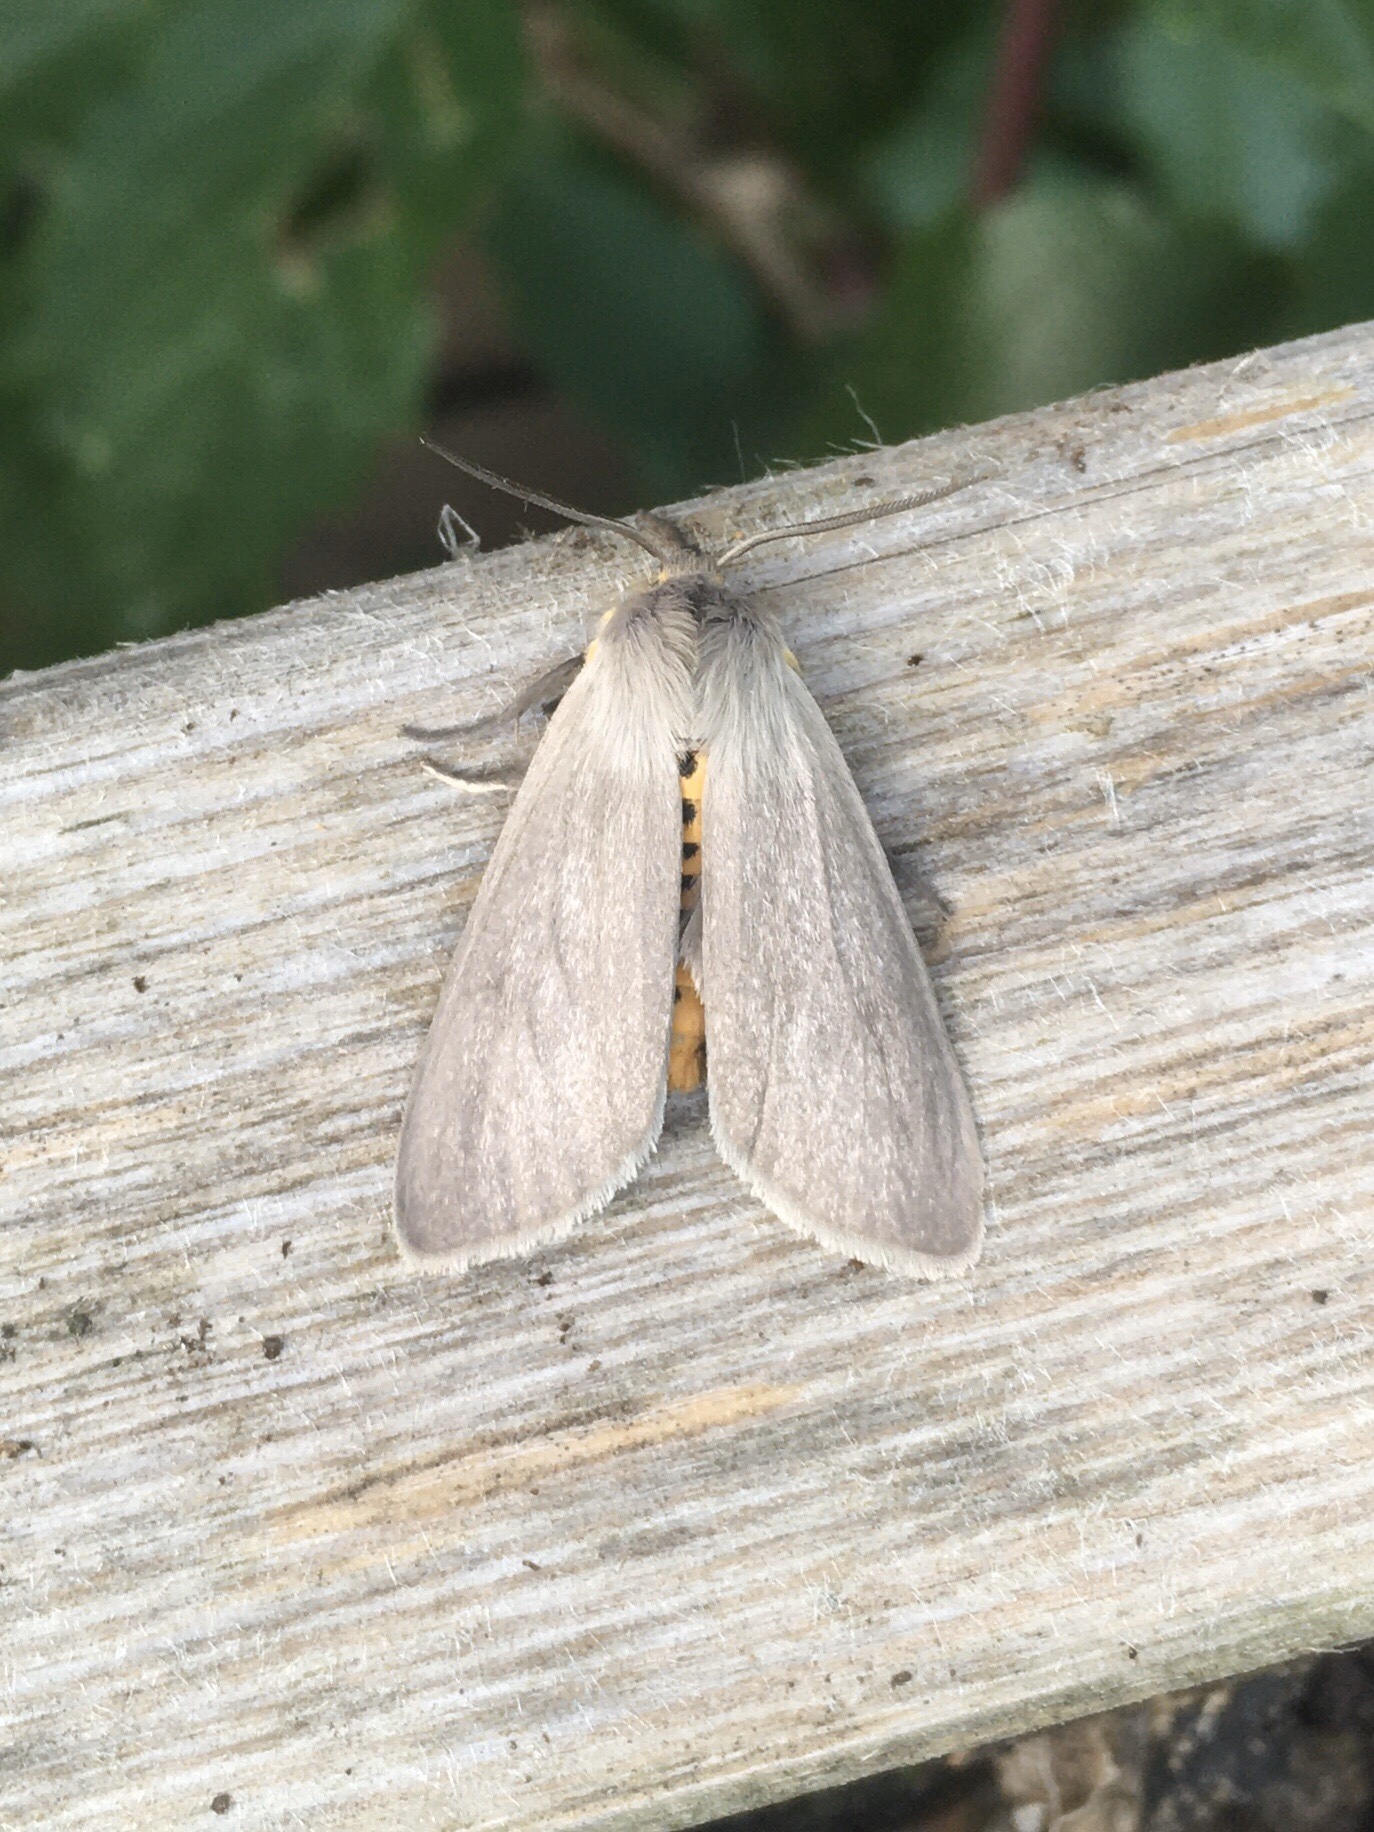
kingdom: Animalia
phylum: Arthropoda
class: Insecta
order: Lepidoptera
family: Erebidae
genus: Euchaetes
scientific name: Euchaetes egle
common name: Milkweed tussock moth
